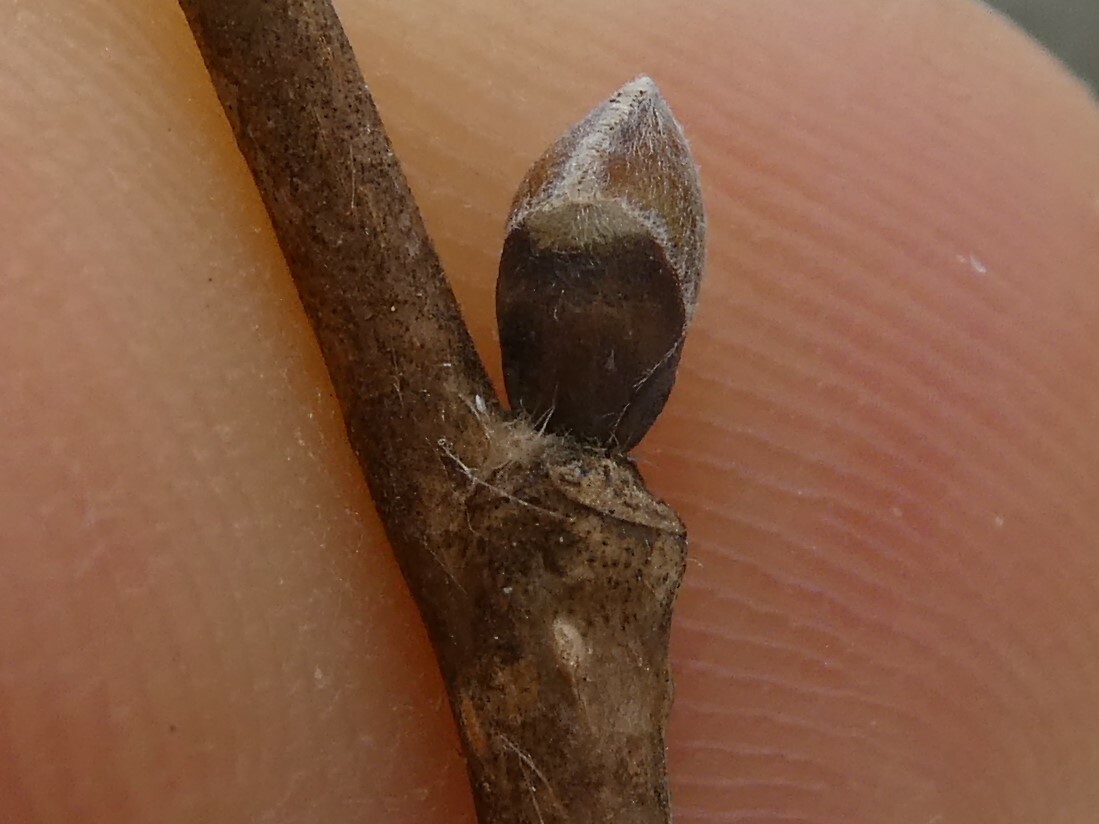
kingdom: Plantae
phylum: Tracheophyta
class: Magnoliopsida
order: Fagales
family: Betulaceae
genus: Corylus
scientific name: Corylus cornuta
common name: Beaked hazel
